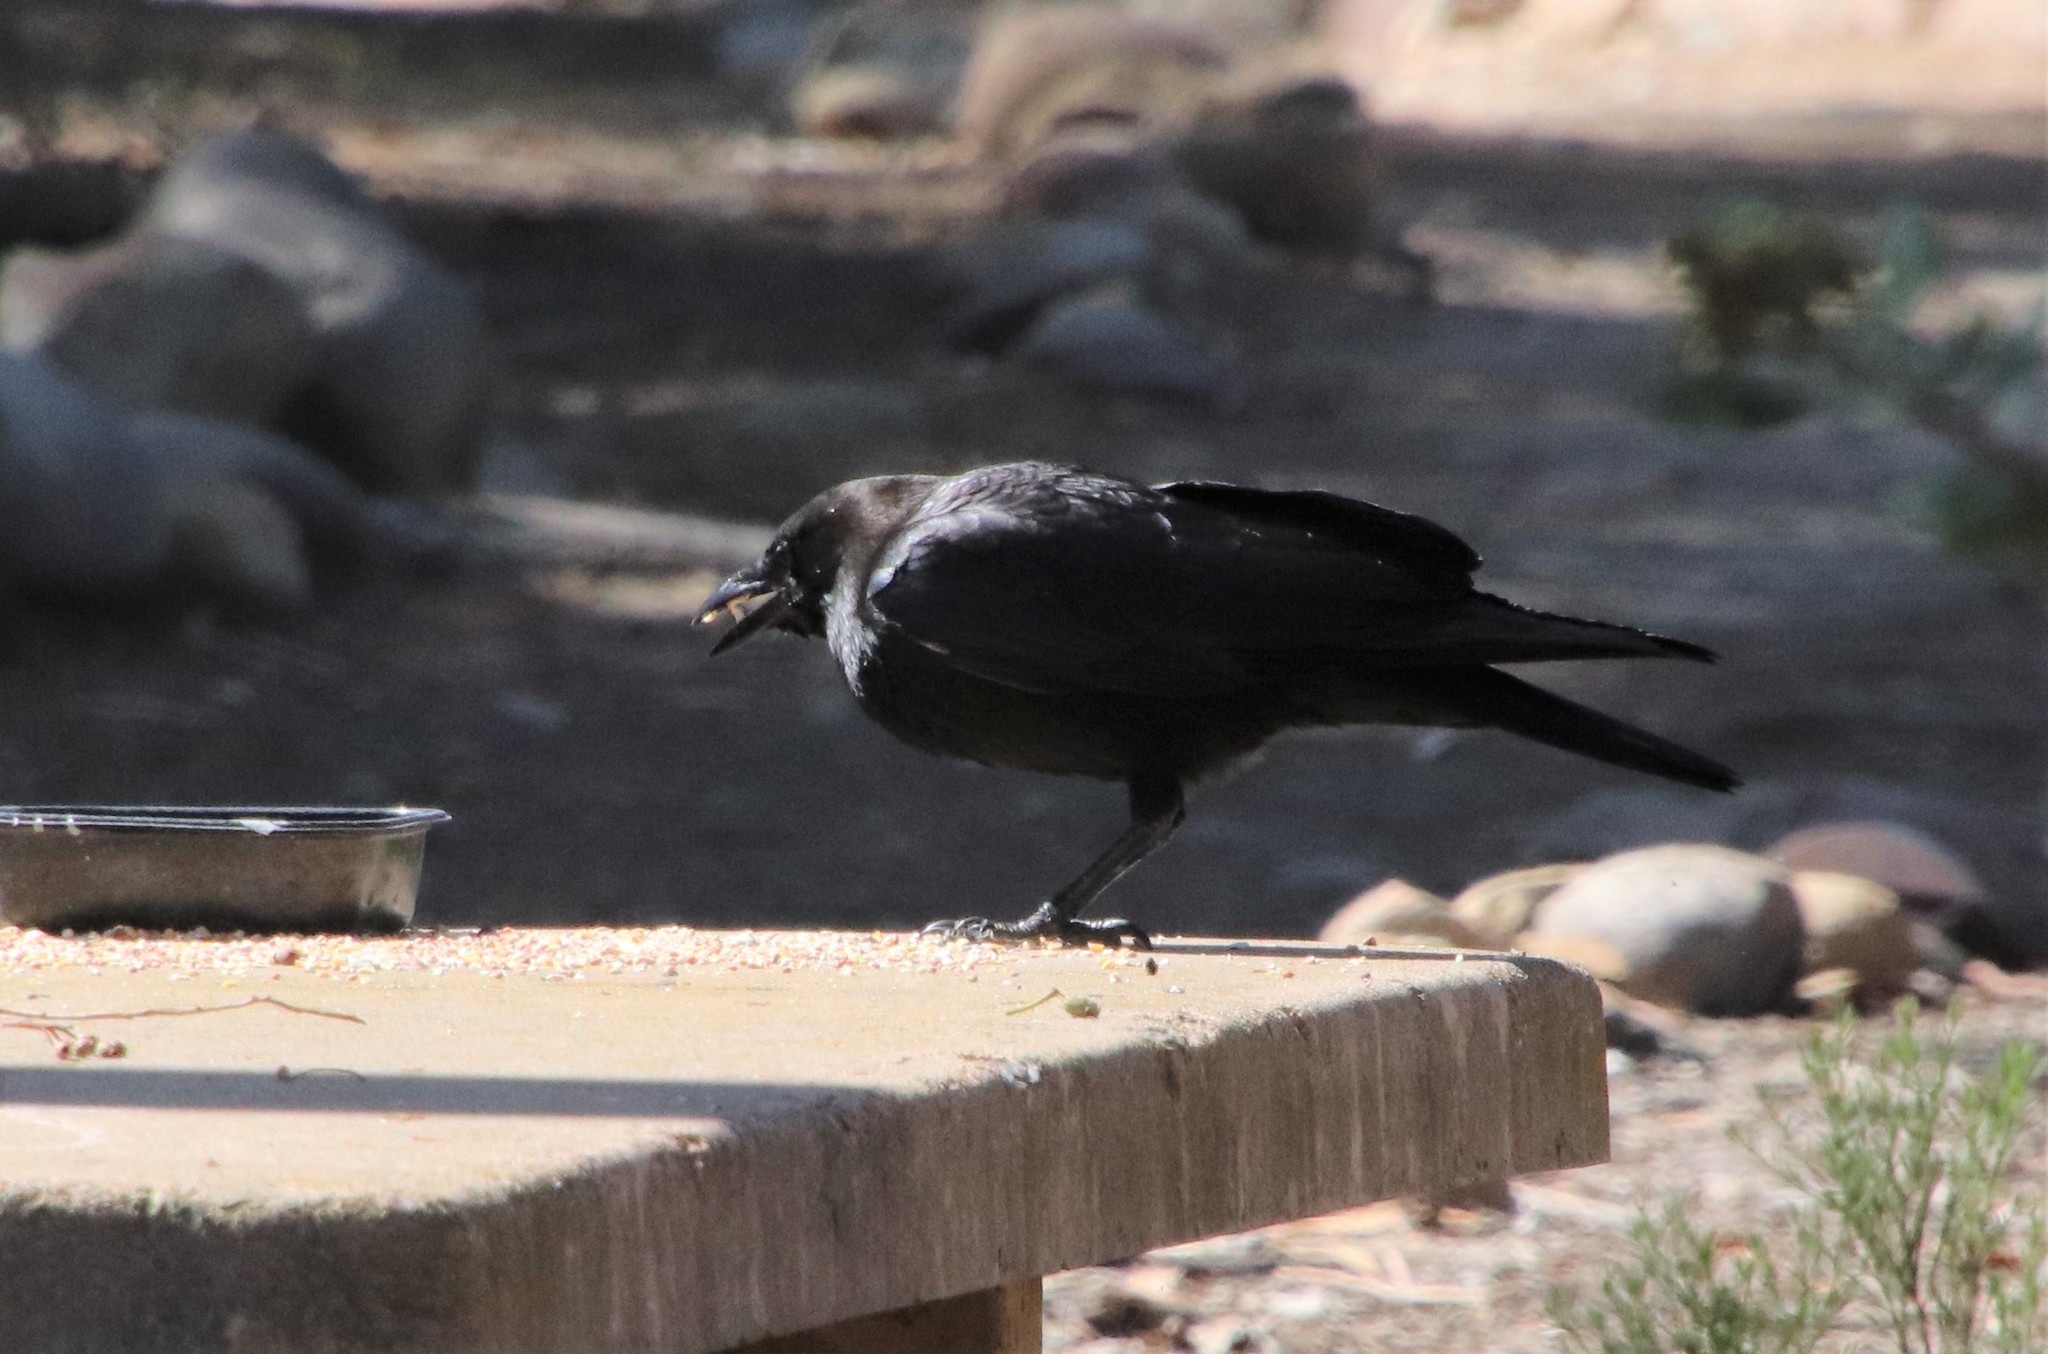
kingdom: Animalia
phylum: Chordata
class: Aves
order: Passeriformes
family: Corvidae
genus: Corvus
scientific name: Corvus brachyrhynchos
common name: American crow
